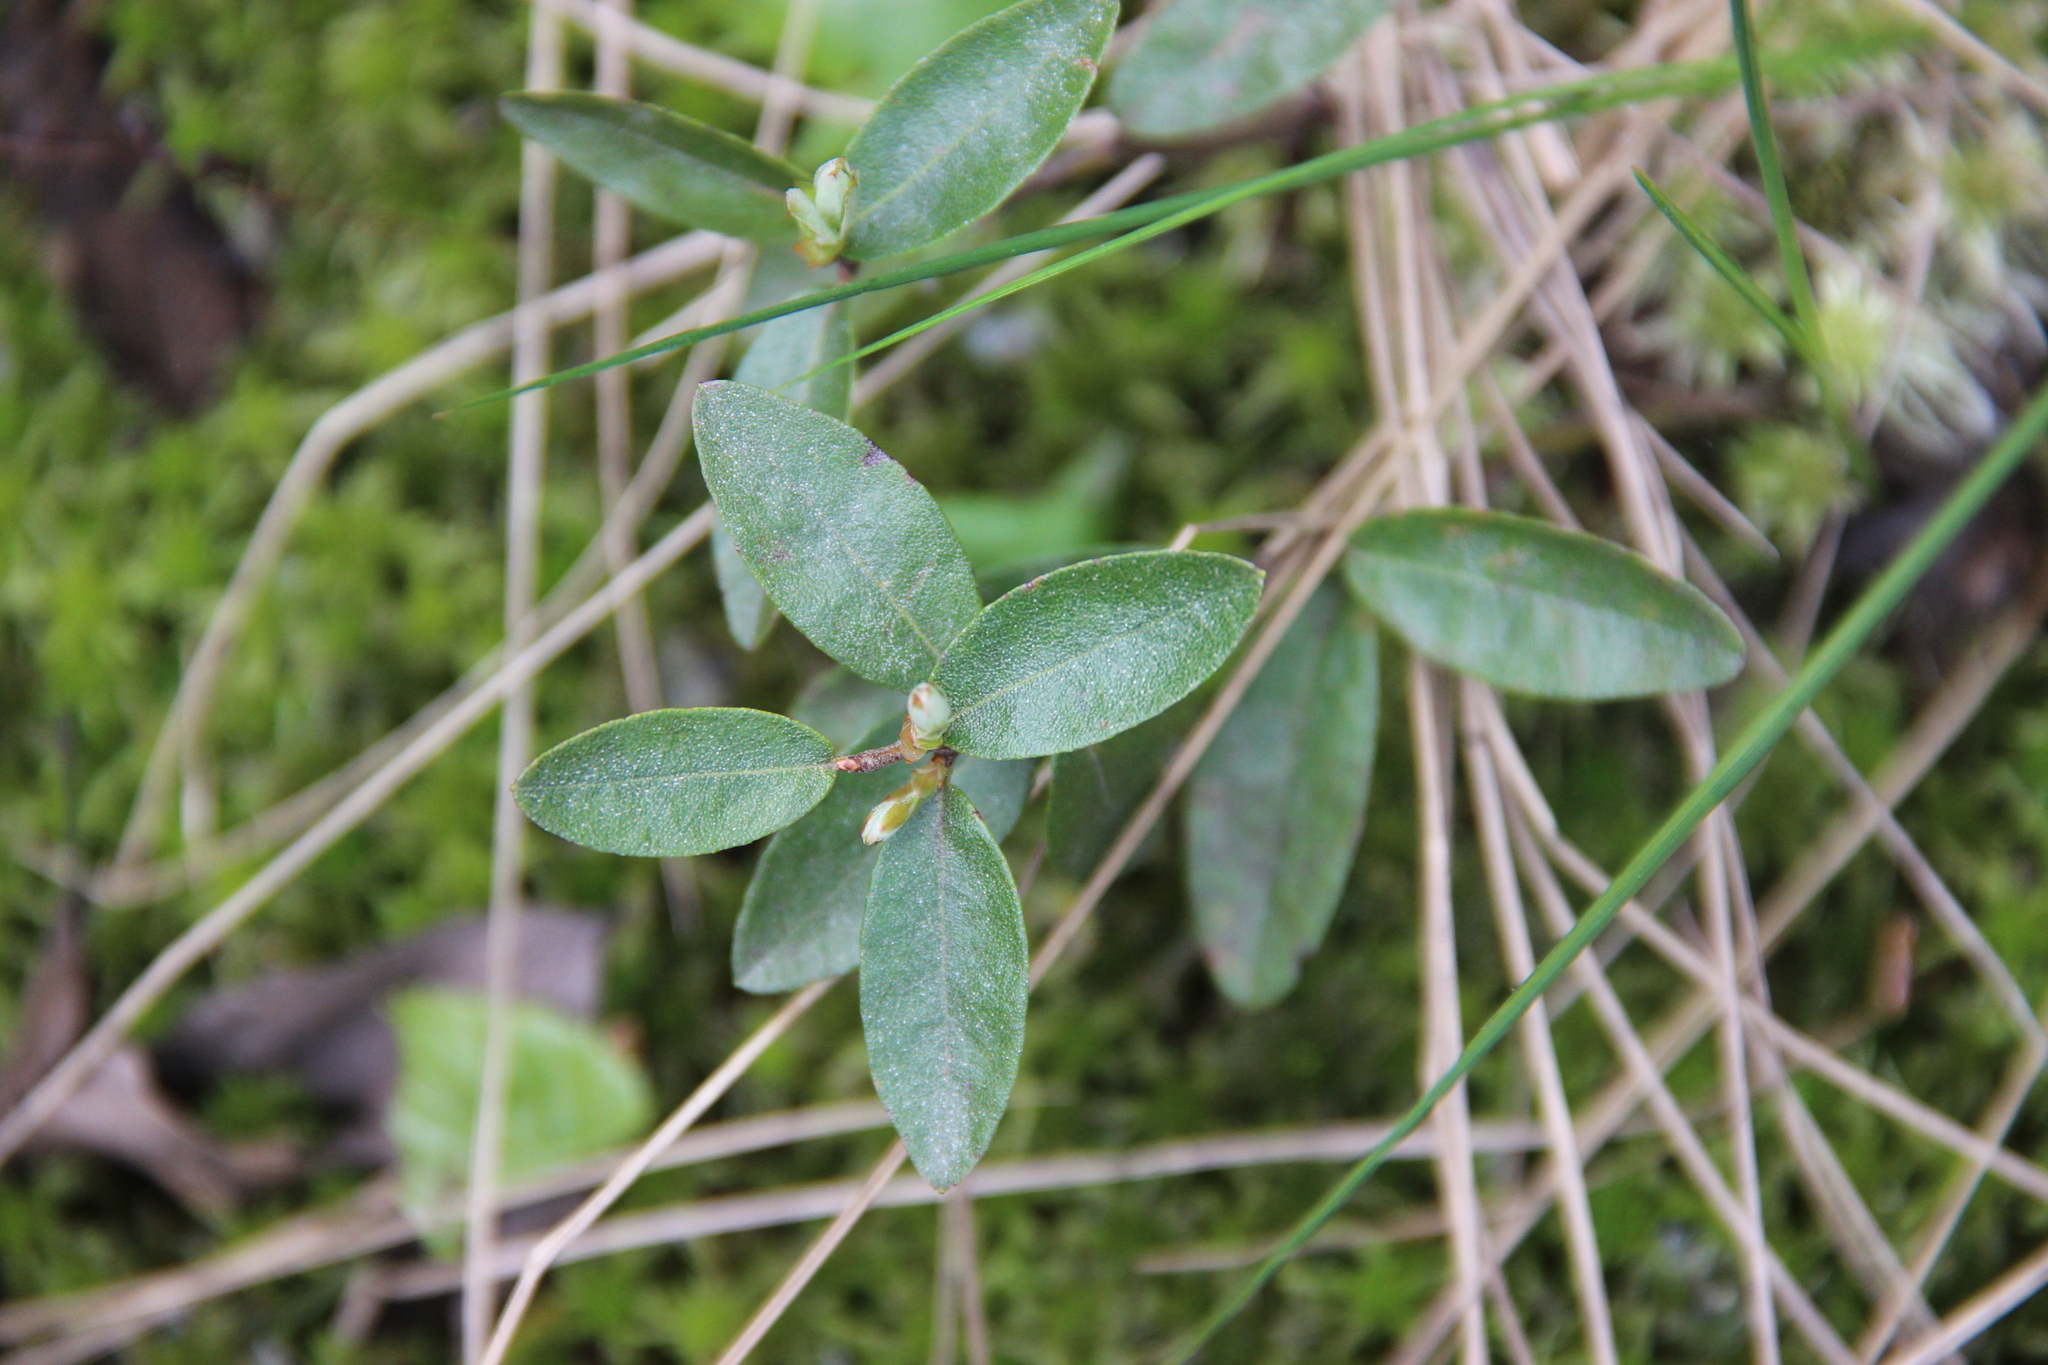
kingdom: Plantae
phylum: Tracheophyta
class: Magnoliopsida
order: Ericales
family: Ericaceae
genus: Chamaedaphne
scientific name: Chamaedaphne calyculata
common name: Leatherleaf
